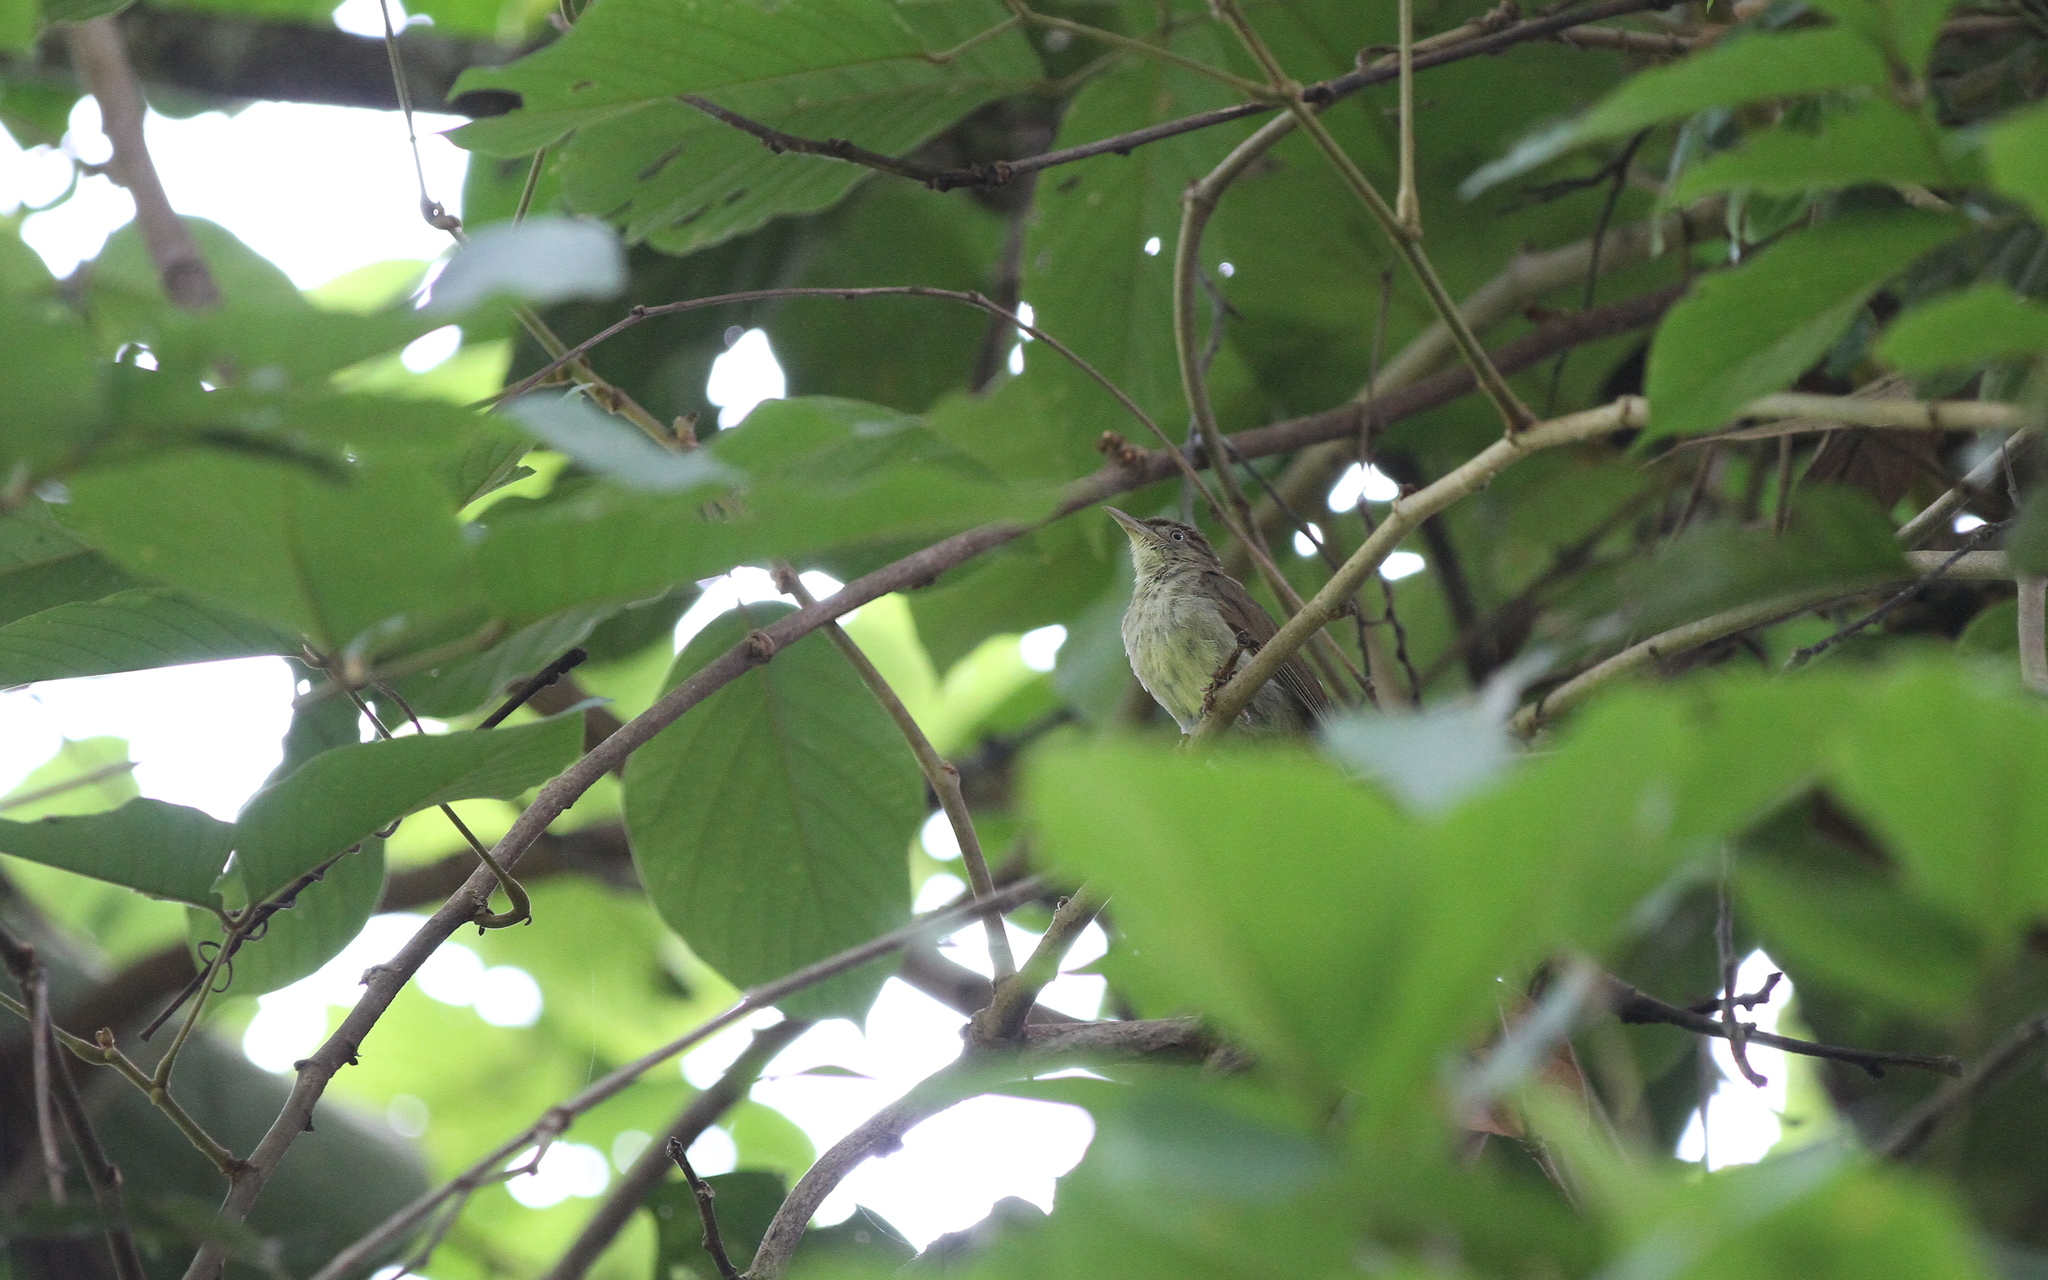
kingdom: Animalia
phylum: Chordata
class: Aves
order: Passeriformes
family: Pycnonotidae
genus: Iole
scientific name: Iole olivacea
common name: Buff-vented bulbul
